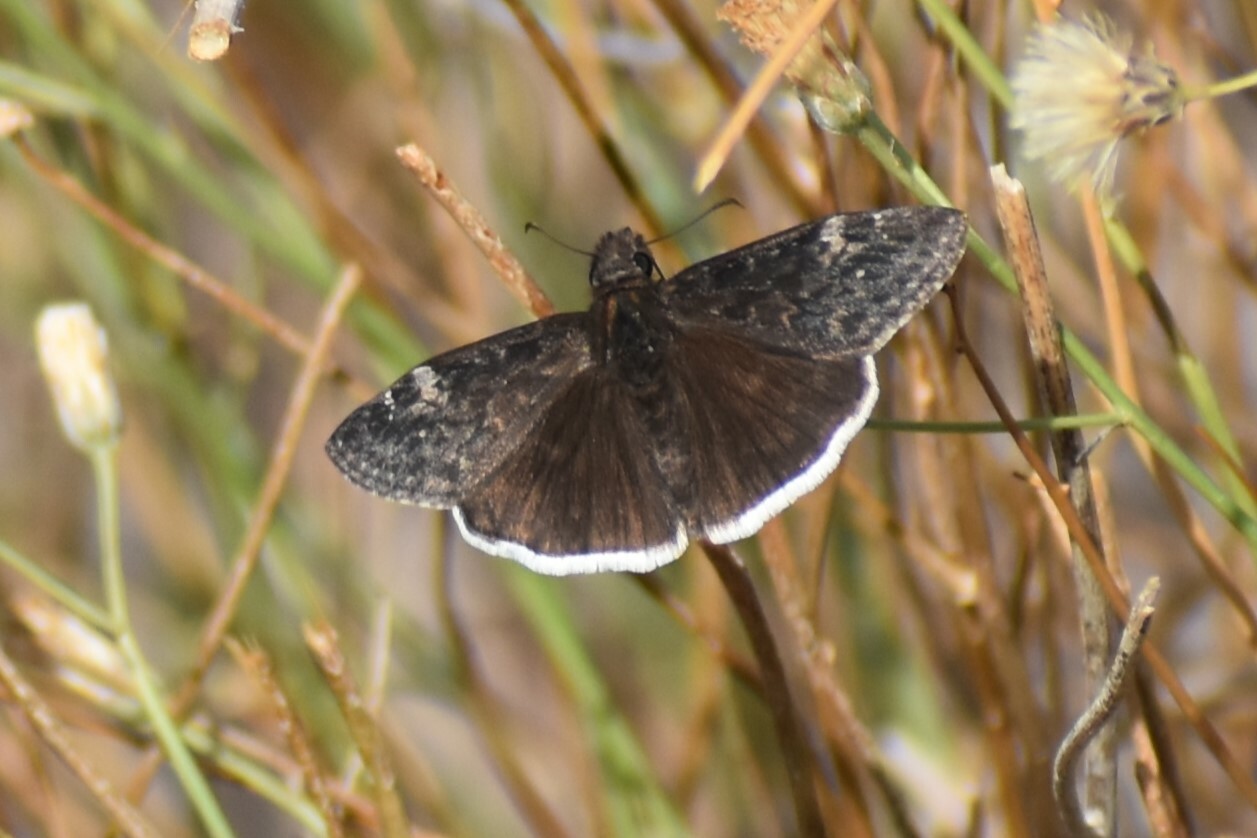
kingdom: Animalia
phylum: Arthropoda
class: Insecta
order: Lepidoptera
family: Hesperiidae
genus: Erynnis
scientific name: Erynnis funeralis
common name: Funereal duskywing
